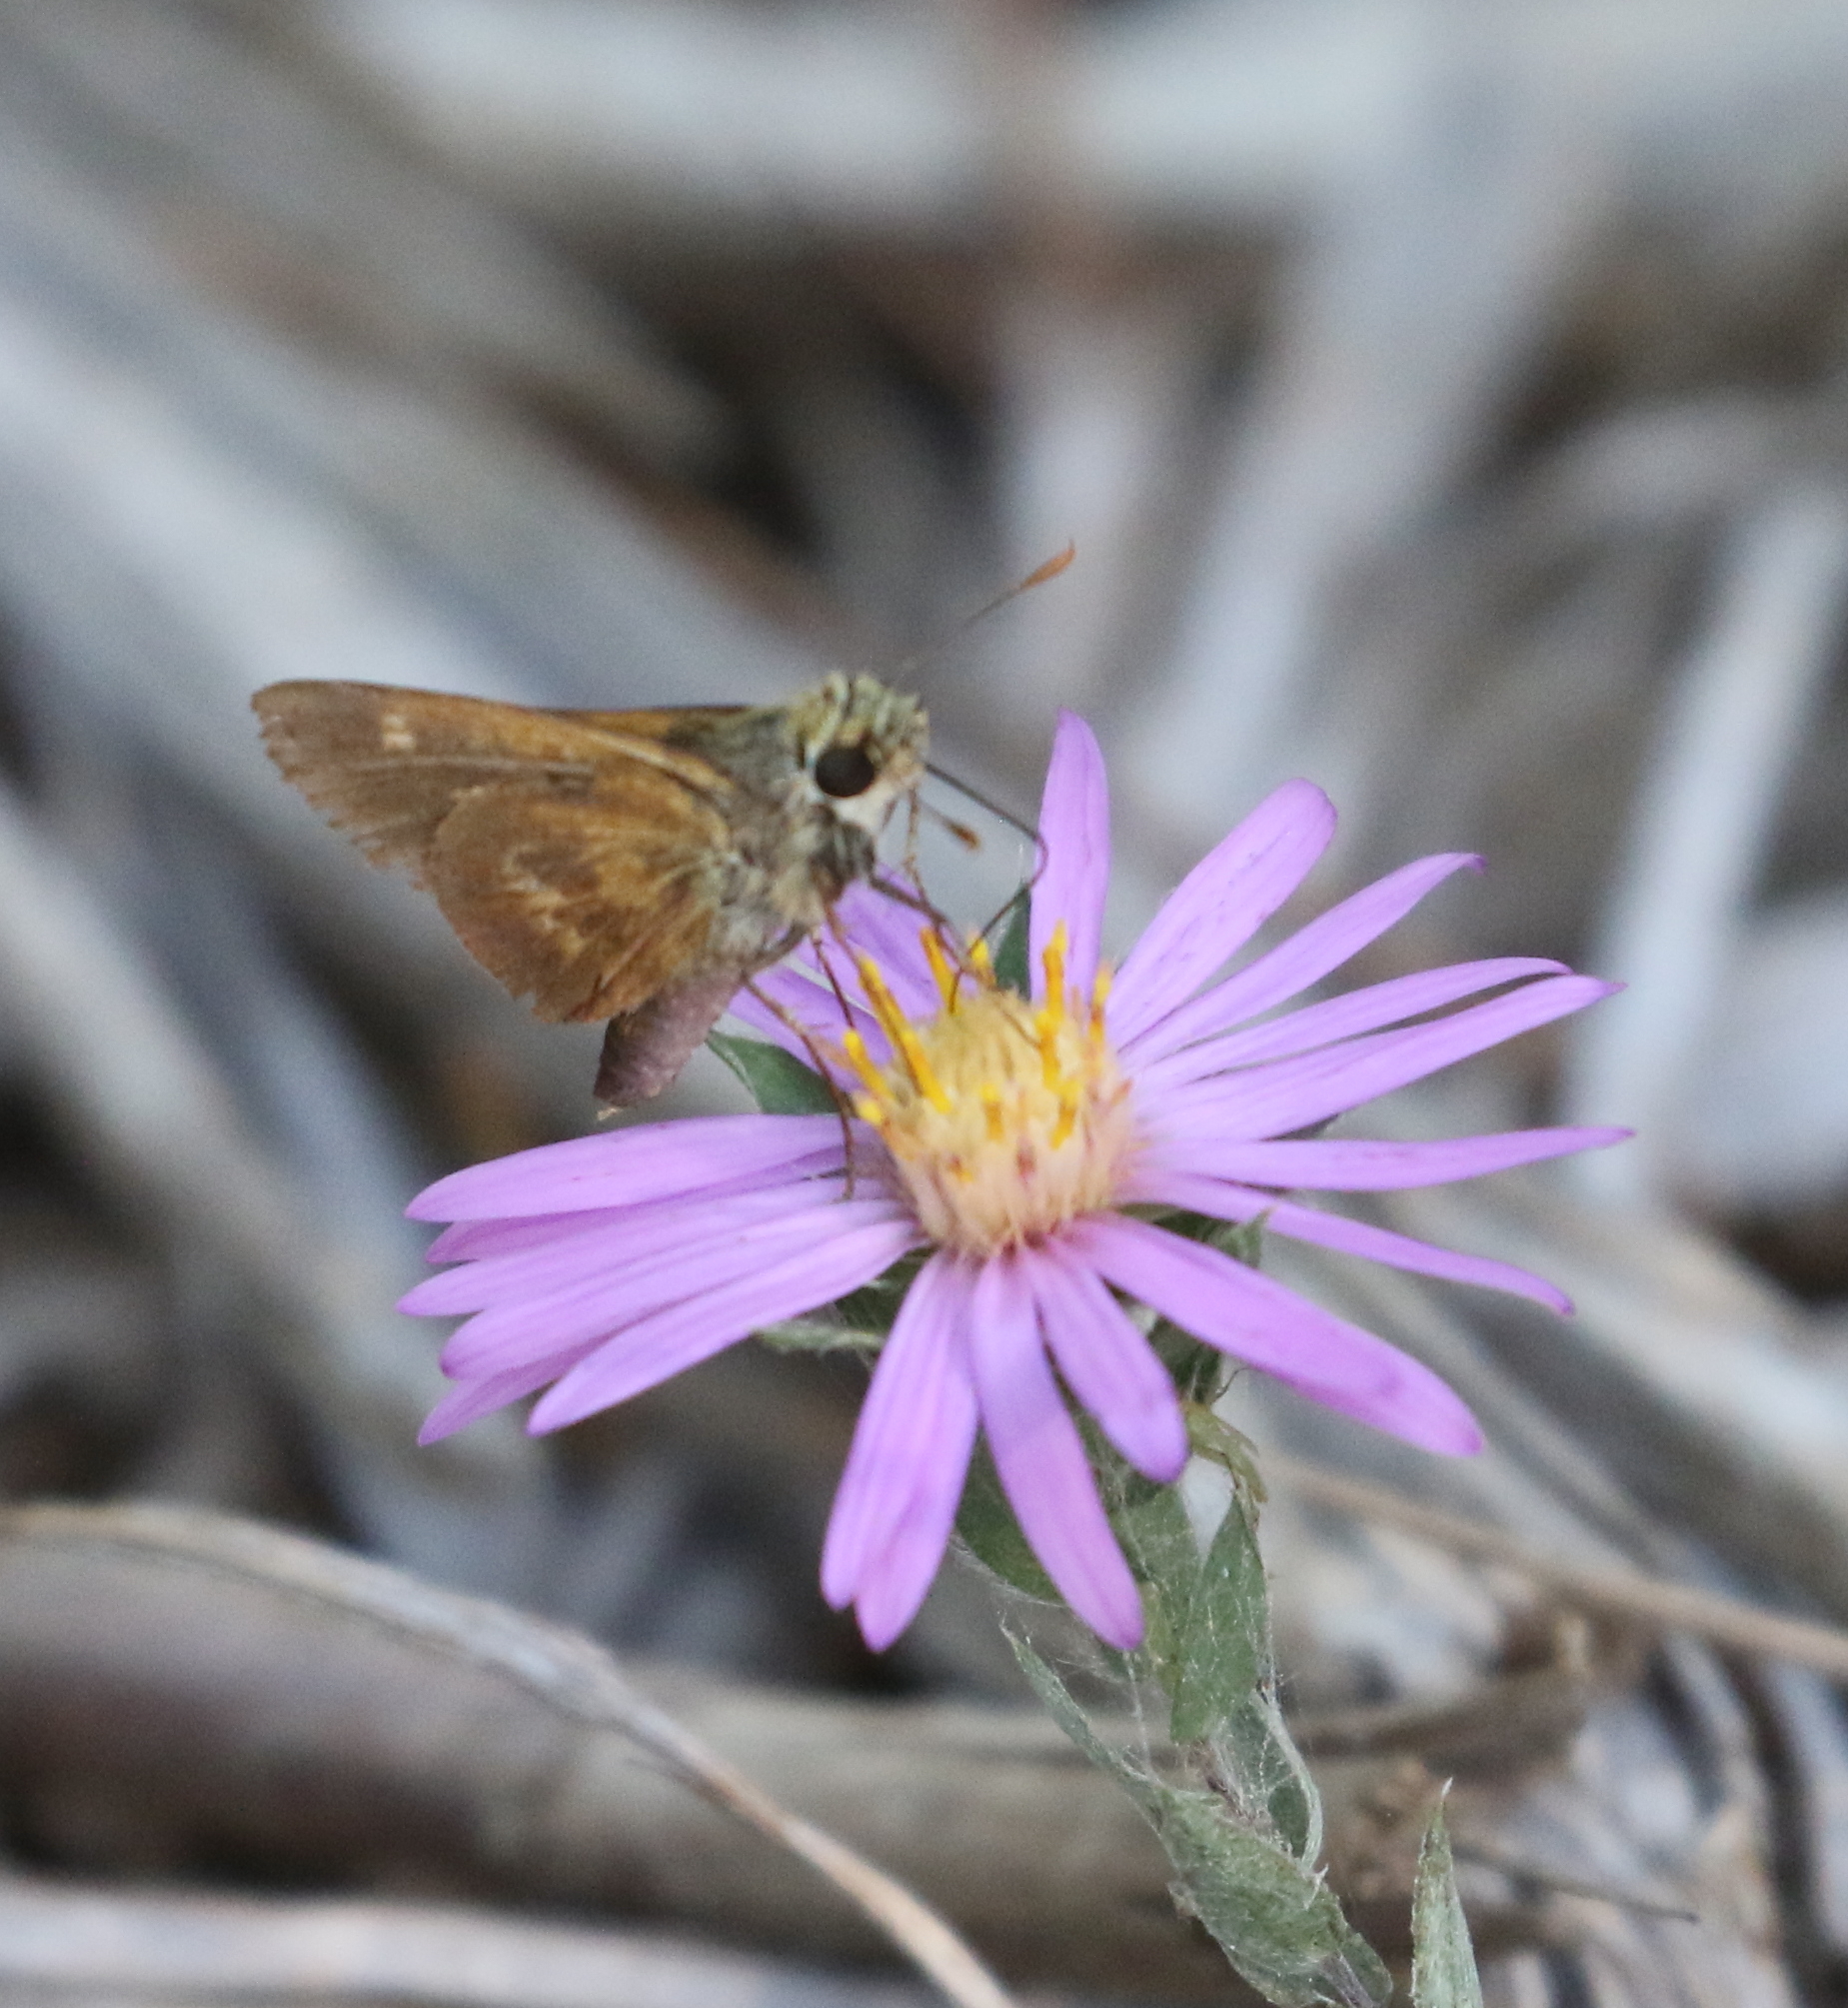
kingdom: Animalia
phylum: Arthropoda
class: Insecta
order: Lepidoptera
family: Hesperiidae
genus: Polites
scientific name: Polites otho
